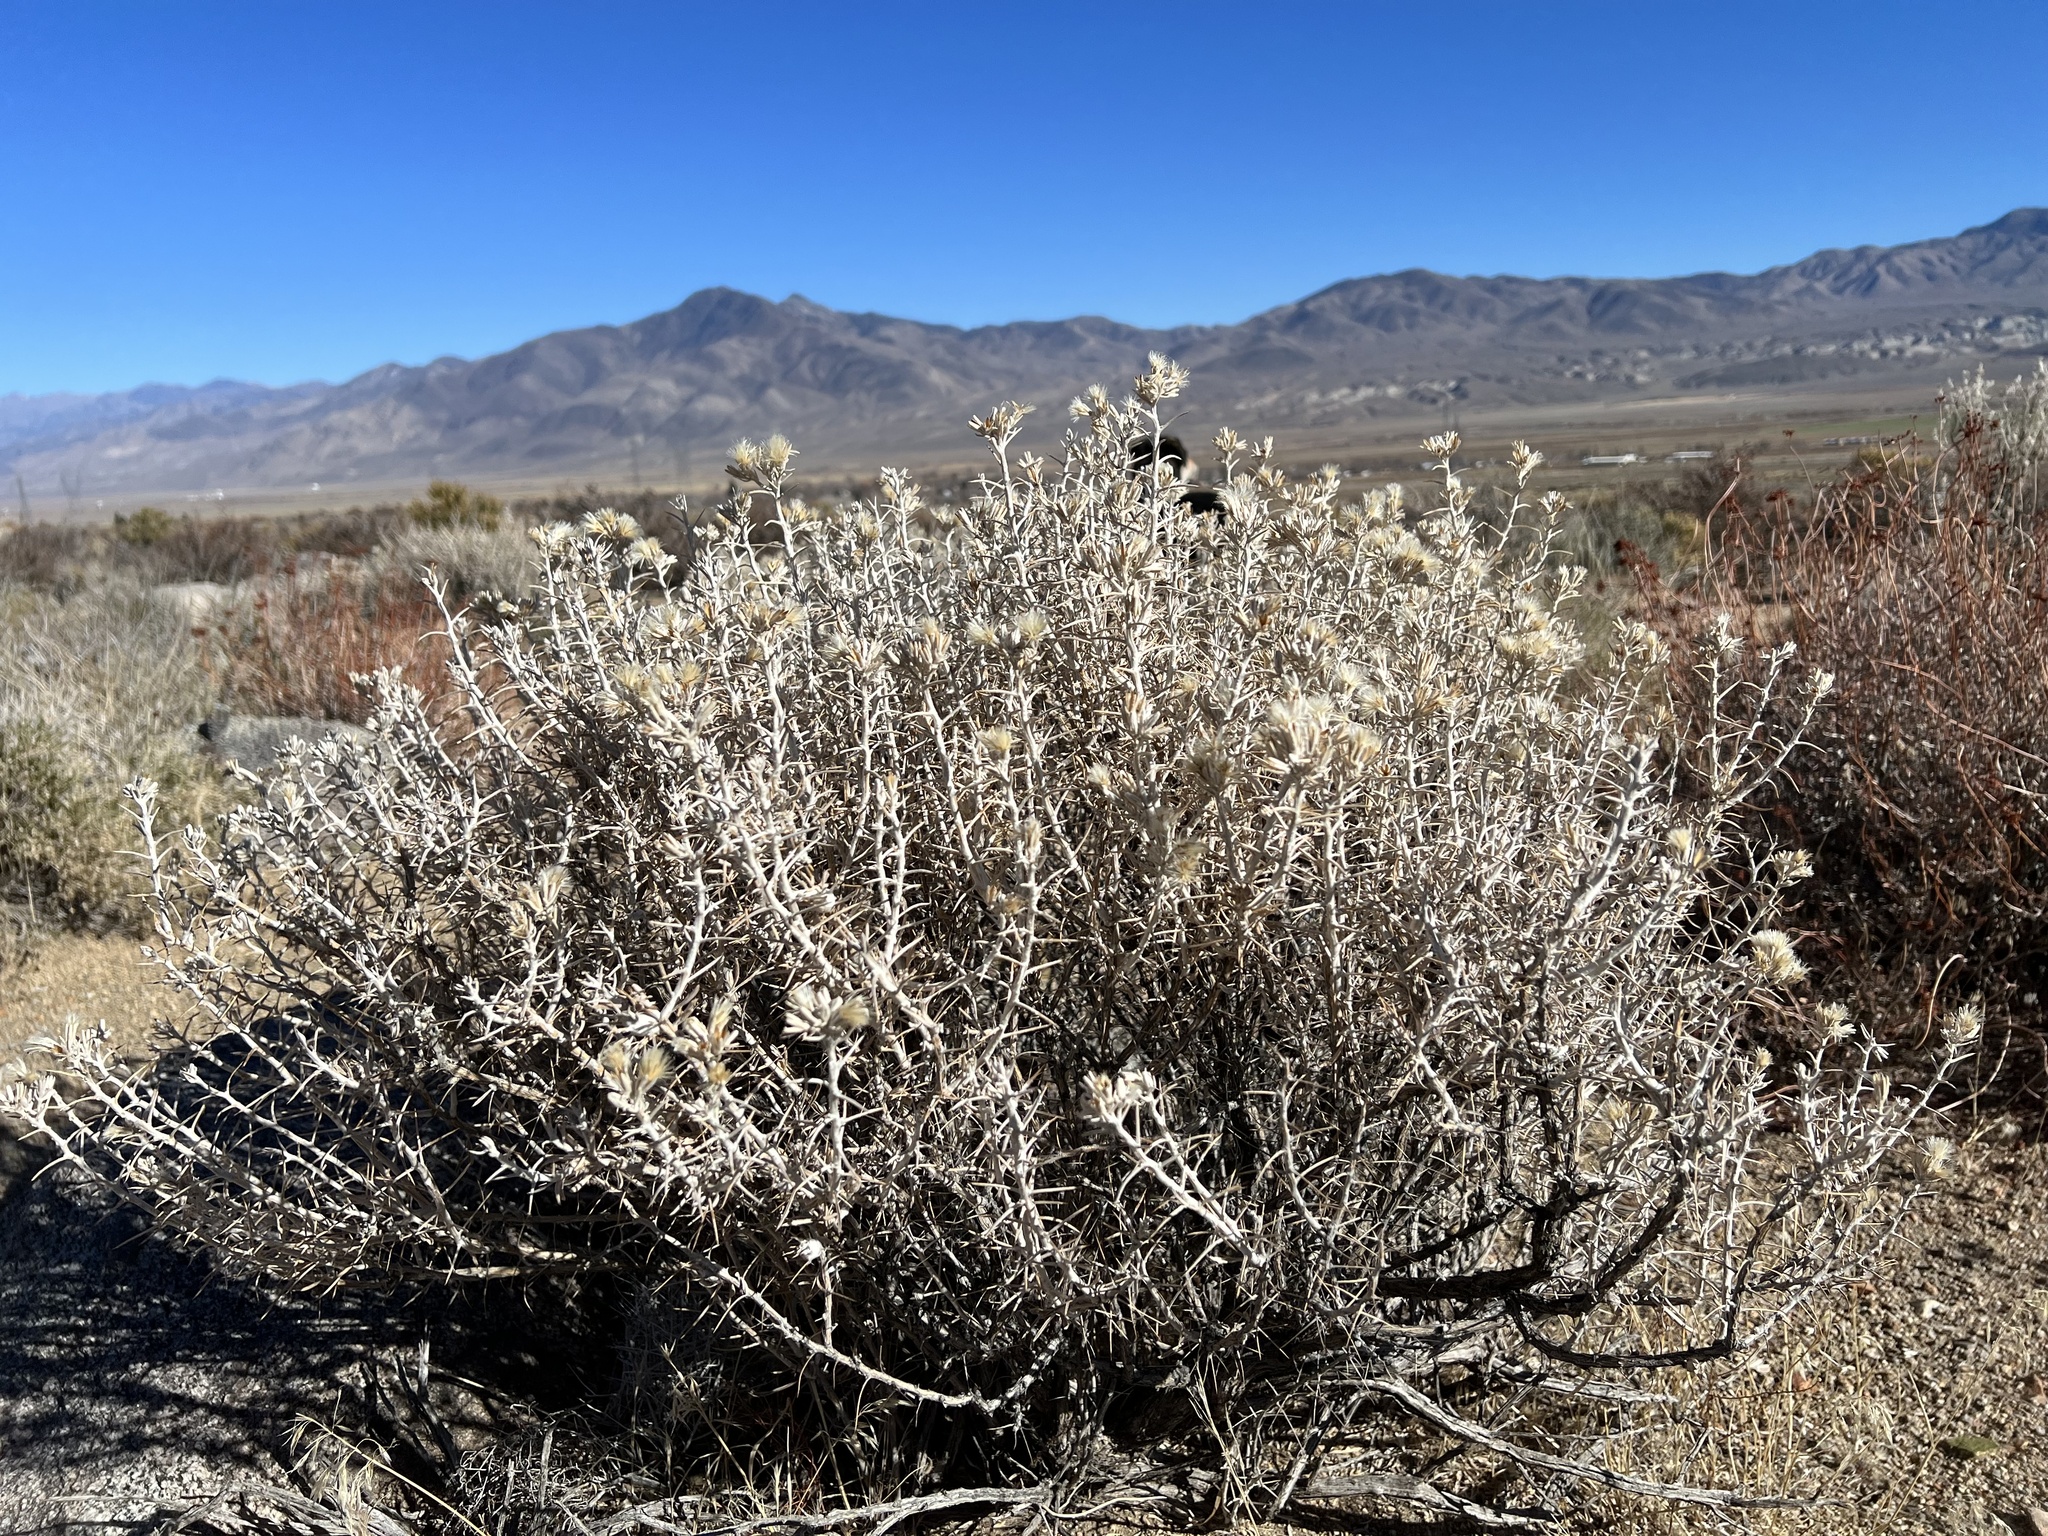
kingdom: Plantae
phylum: Tracheophyta
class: Magnoliopsida
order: Asterales
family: Asteraceae
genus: Tetradymia
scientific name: Tetradymia stenolepis
